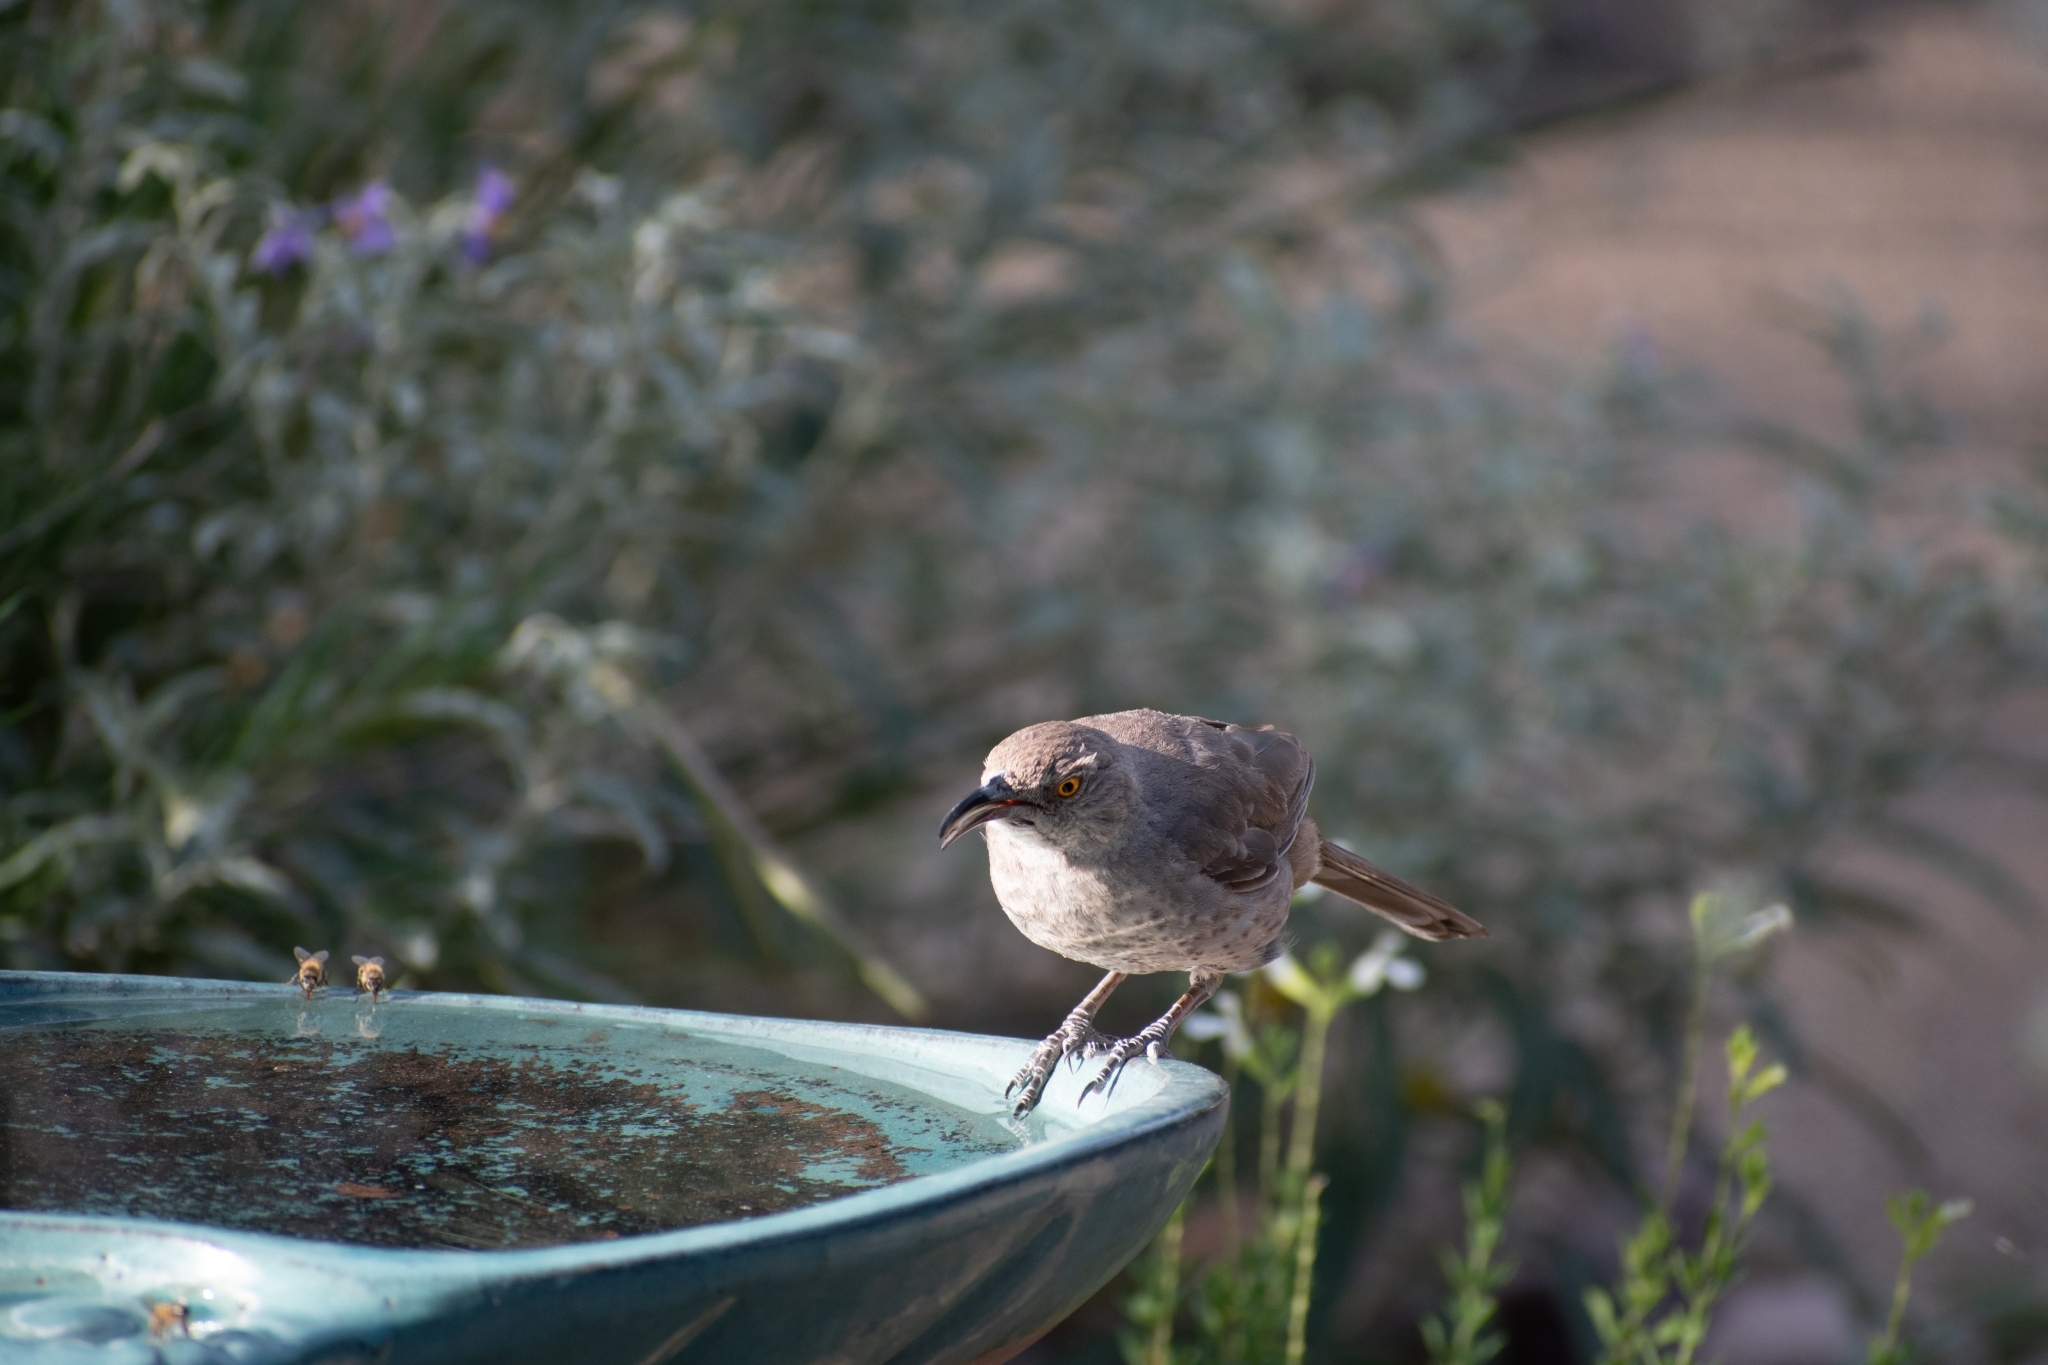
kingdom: Animalia
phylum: Chordata
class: Aves
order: Passeriformes
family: Mimidae
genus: Toxostoma
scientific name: Toxostoma curvirostre
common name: Curve-billed thrasher
